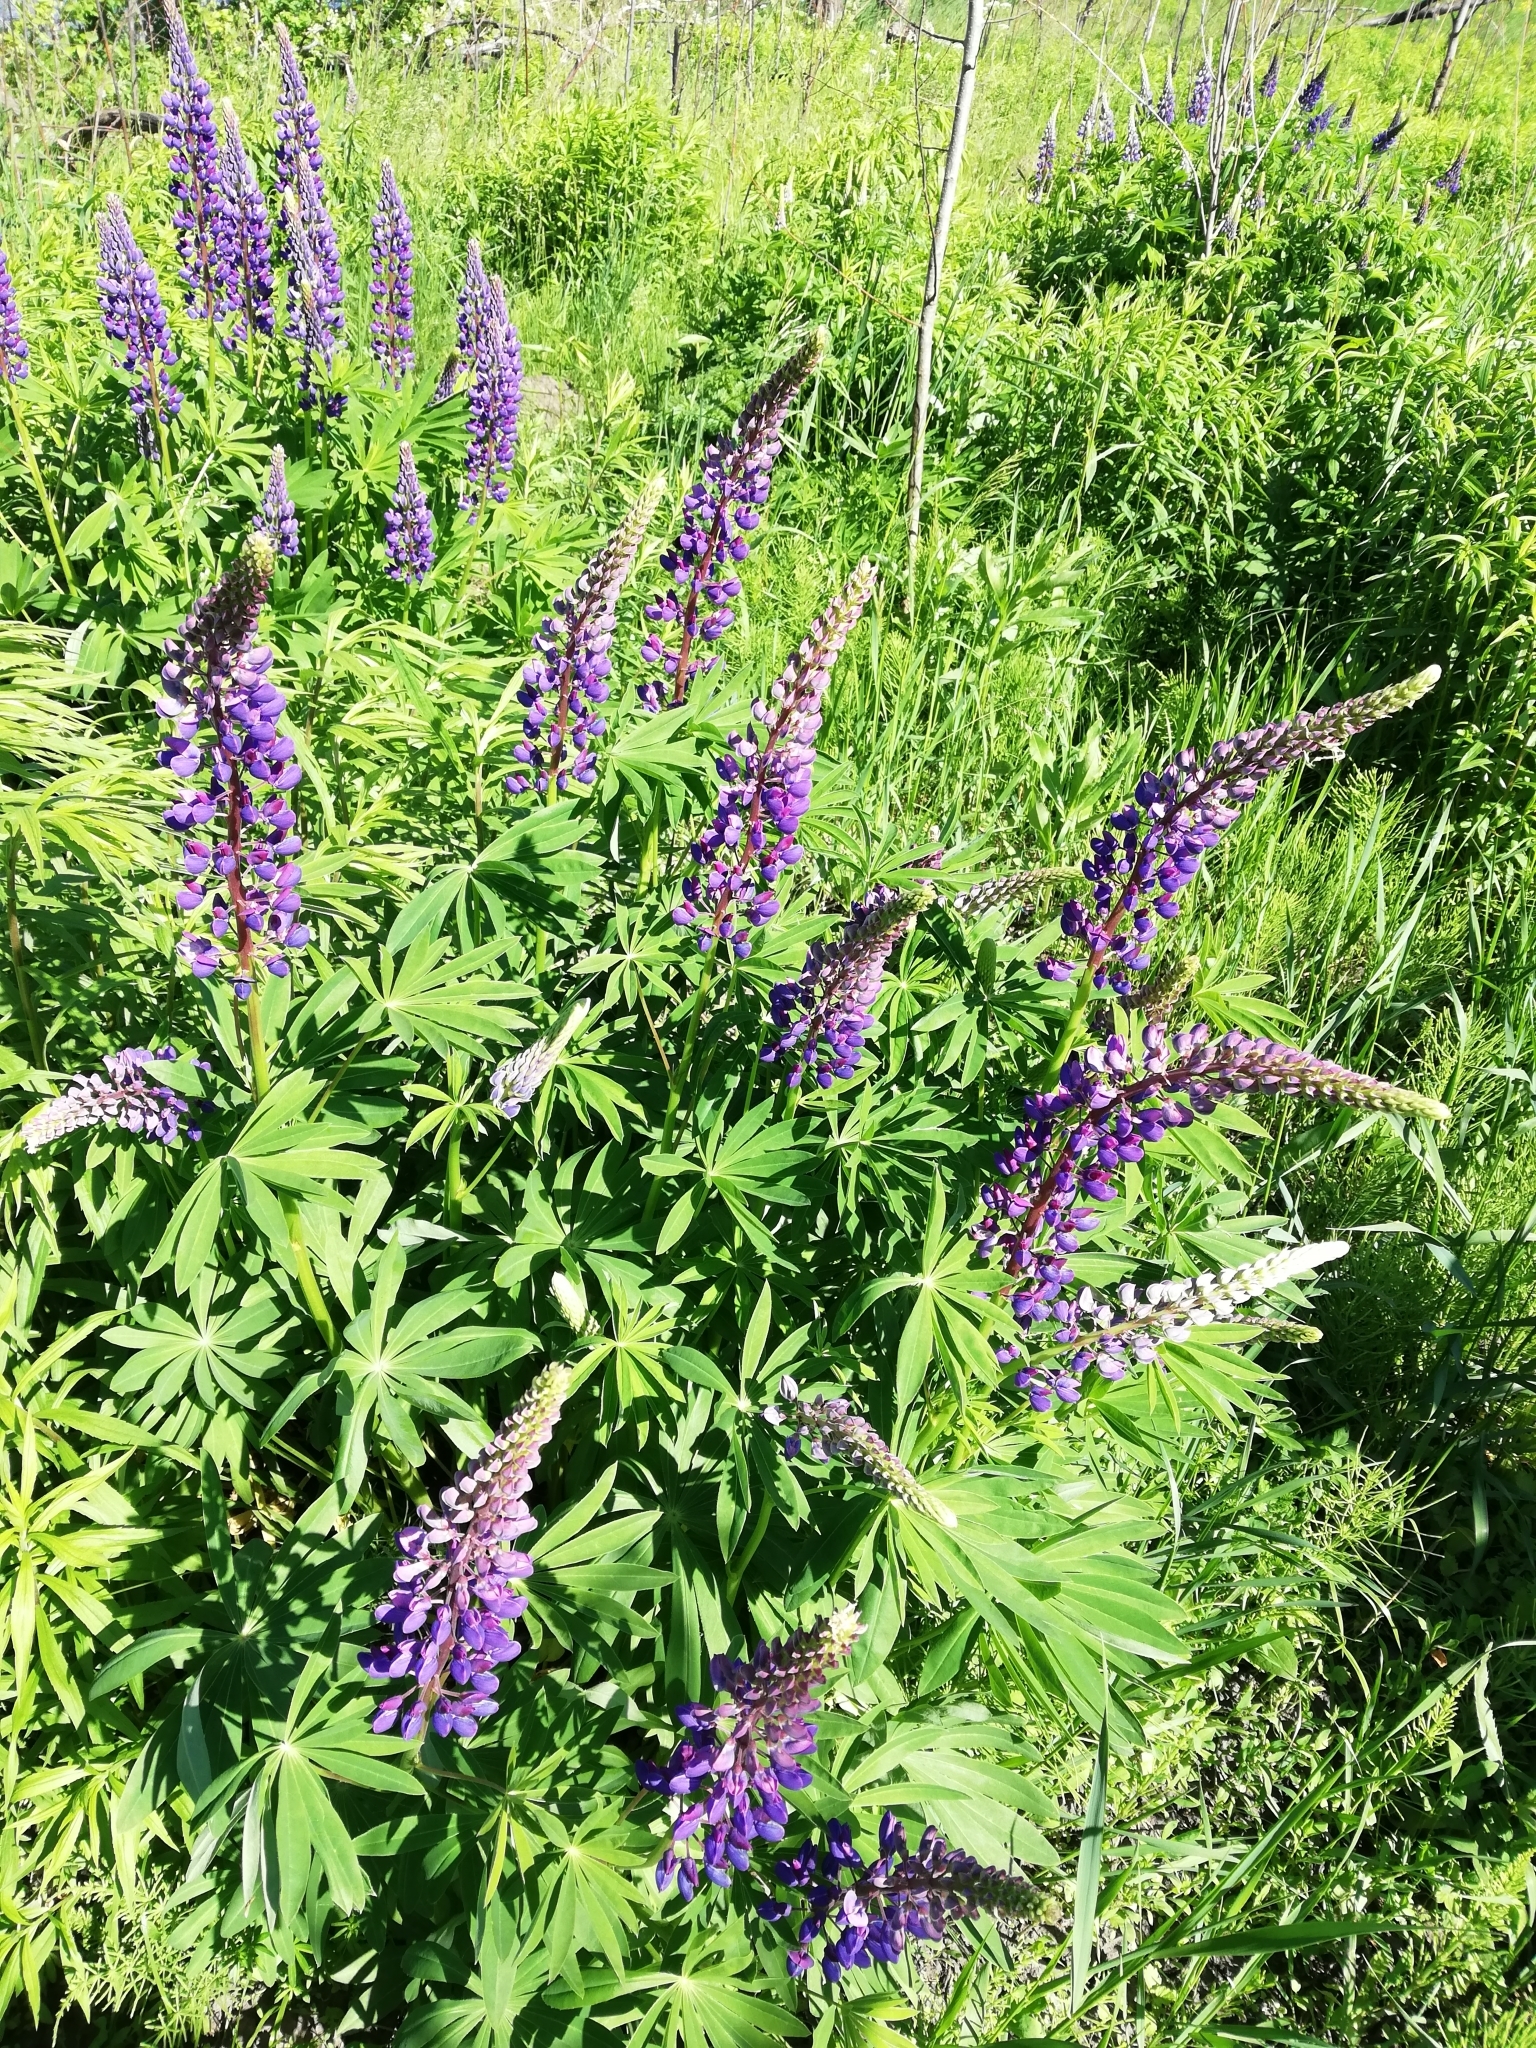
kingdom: Plantae
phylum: Tracheophyta
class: Magnoliopsida
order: Fabales
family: Fabaceae
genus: Lupinus
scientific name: Lupinus polyphyllus
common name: Garden lupin
